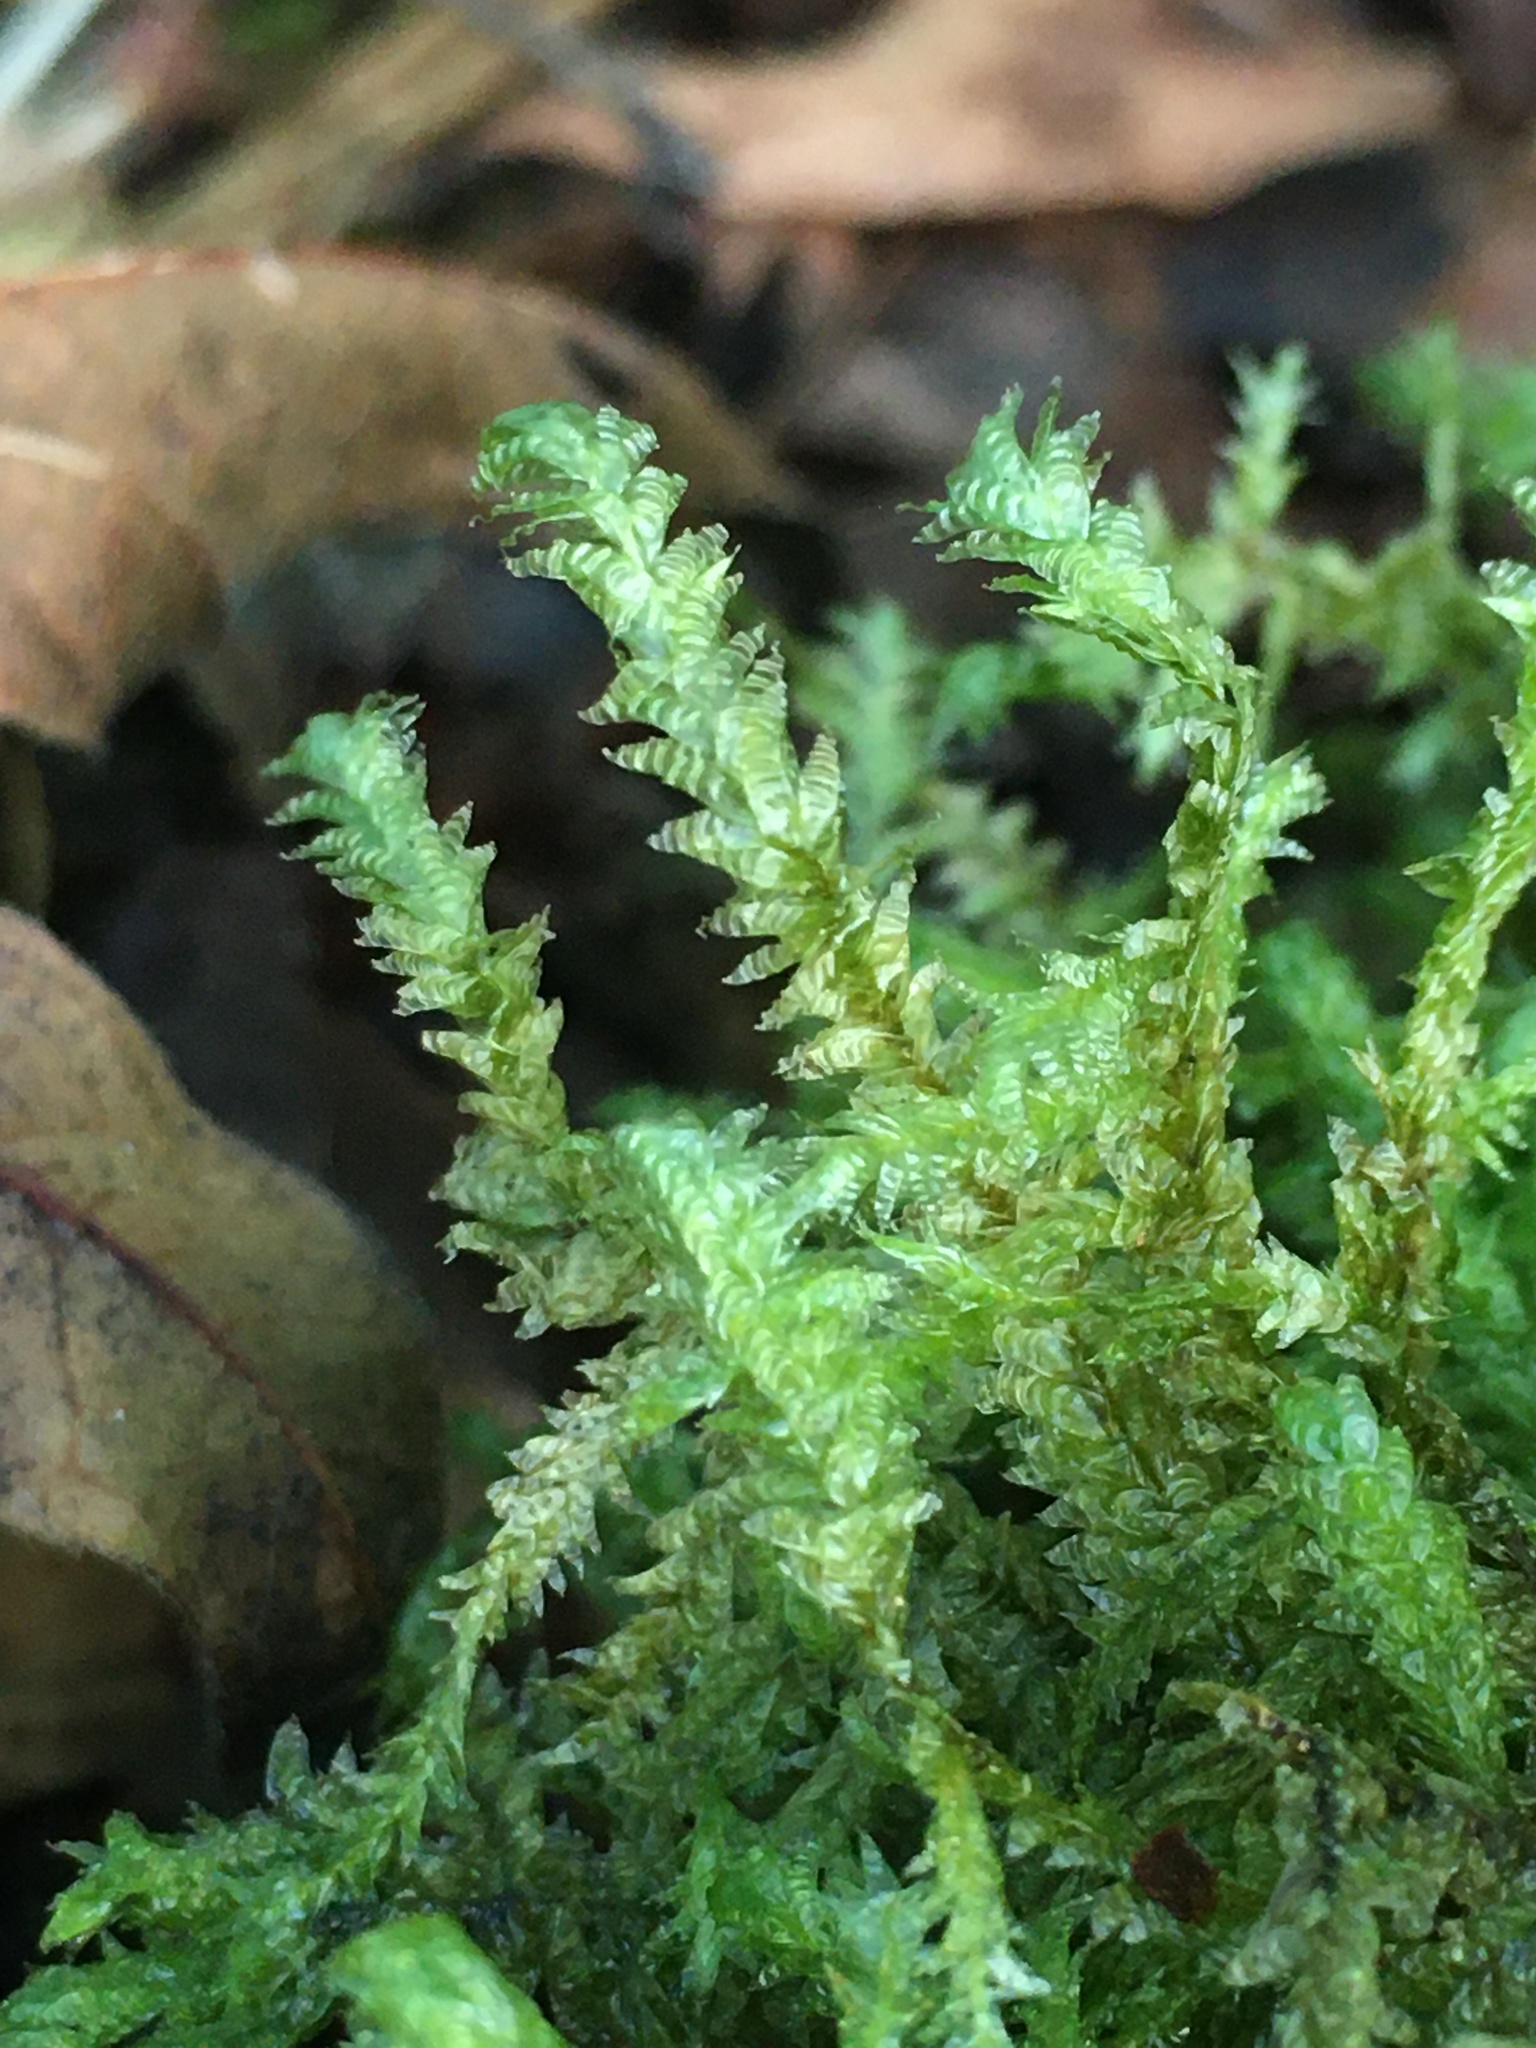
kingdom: Plantae
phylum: Bryophyta
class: Bryopsida
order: Hypnales
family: Neckeraceae
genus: Neckera
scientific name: Neckera douglasii
